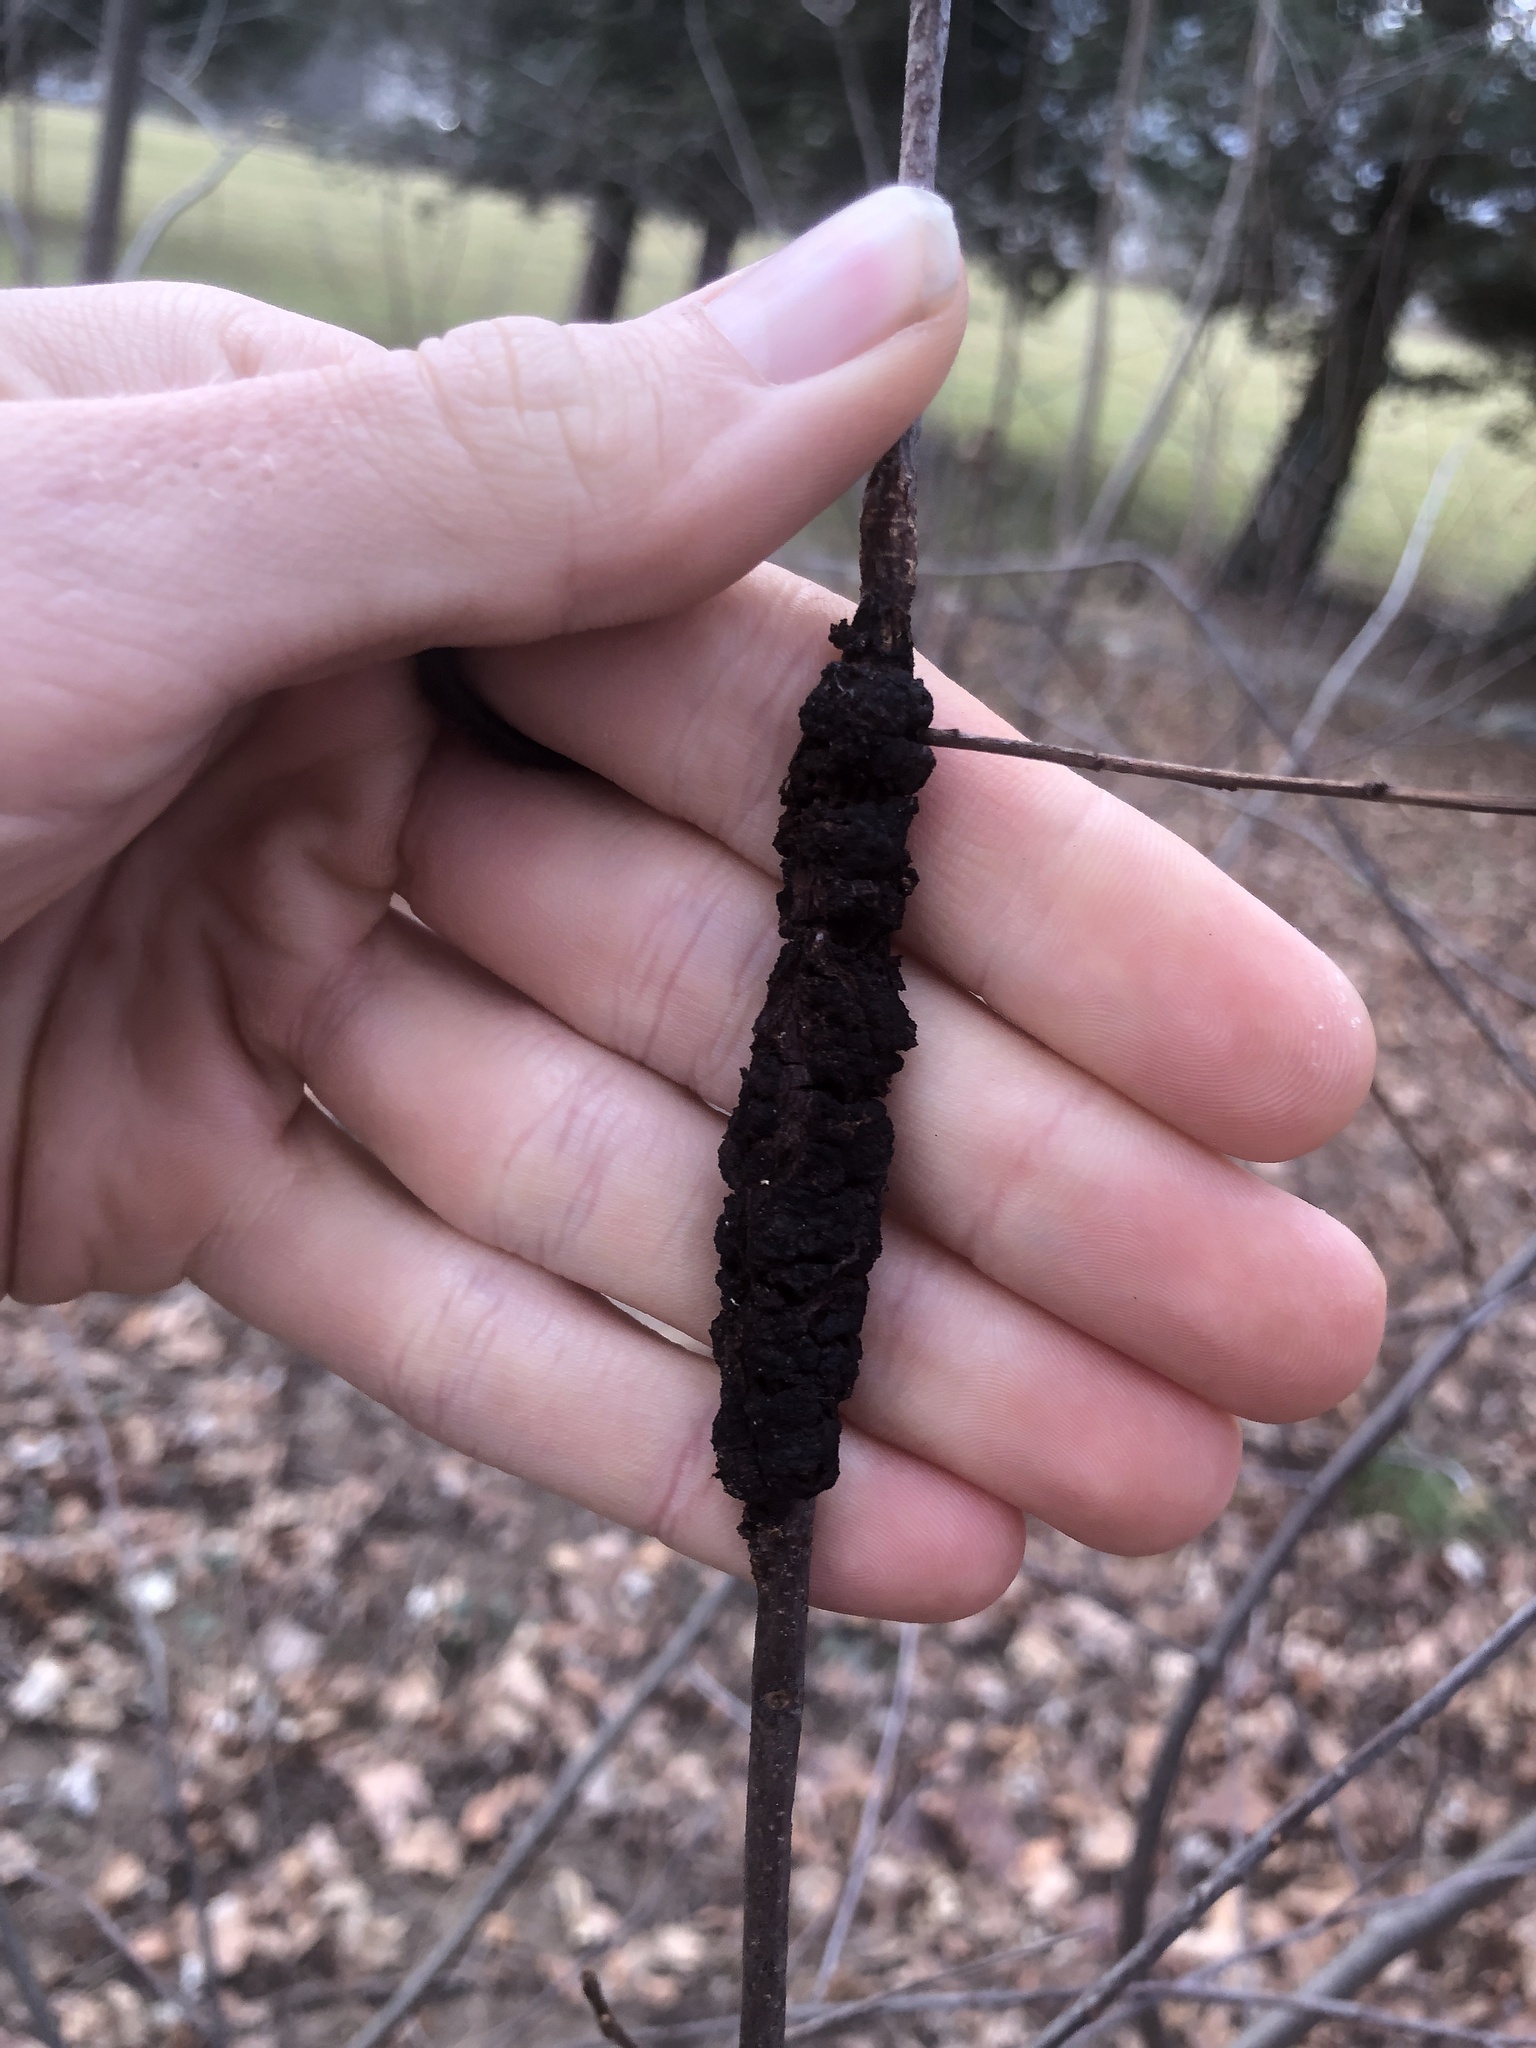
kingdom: Fungi
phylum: Ascomycota
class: Dothideomycetes
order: Venturiales
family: Venturiaceae
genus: Apiosporina
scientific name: Apiosporina morbosa
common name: Black knot
